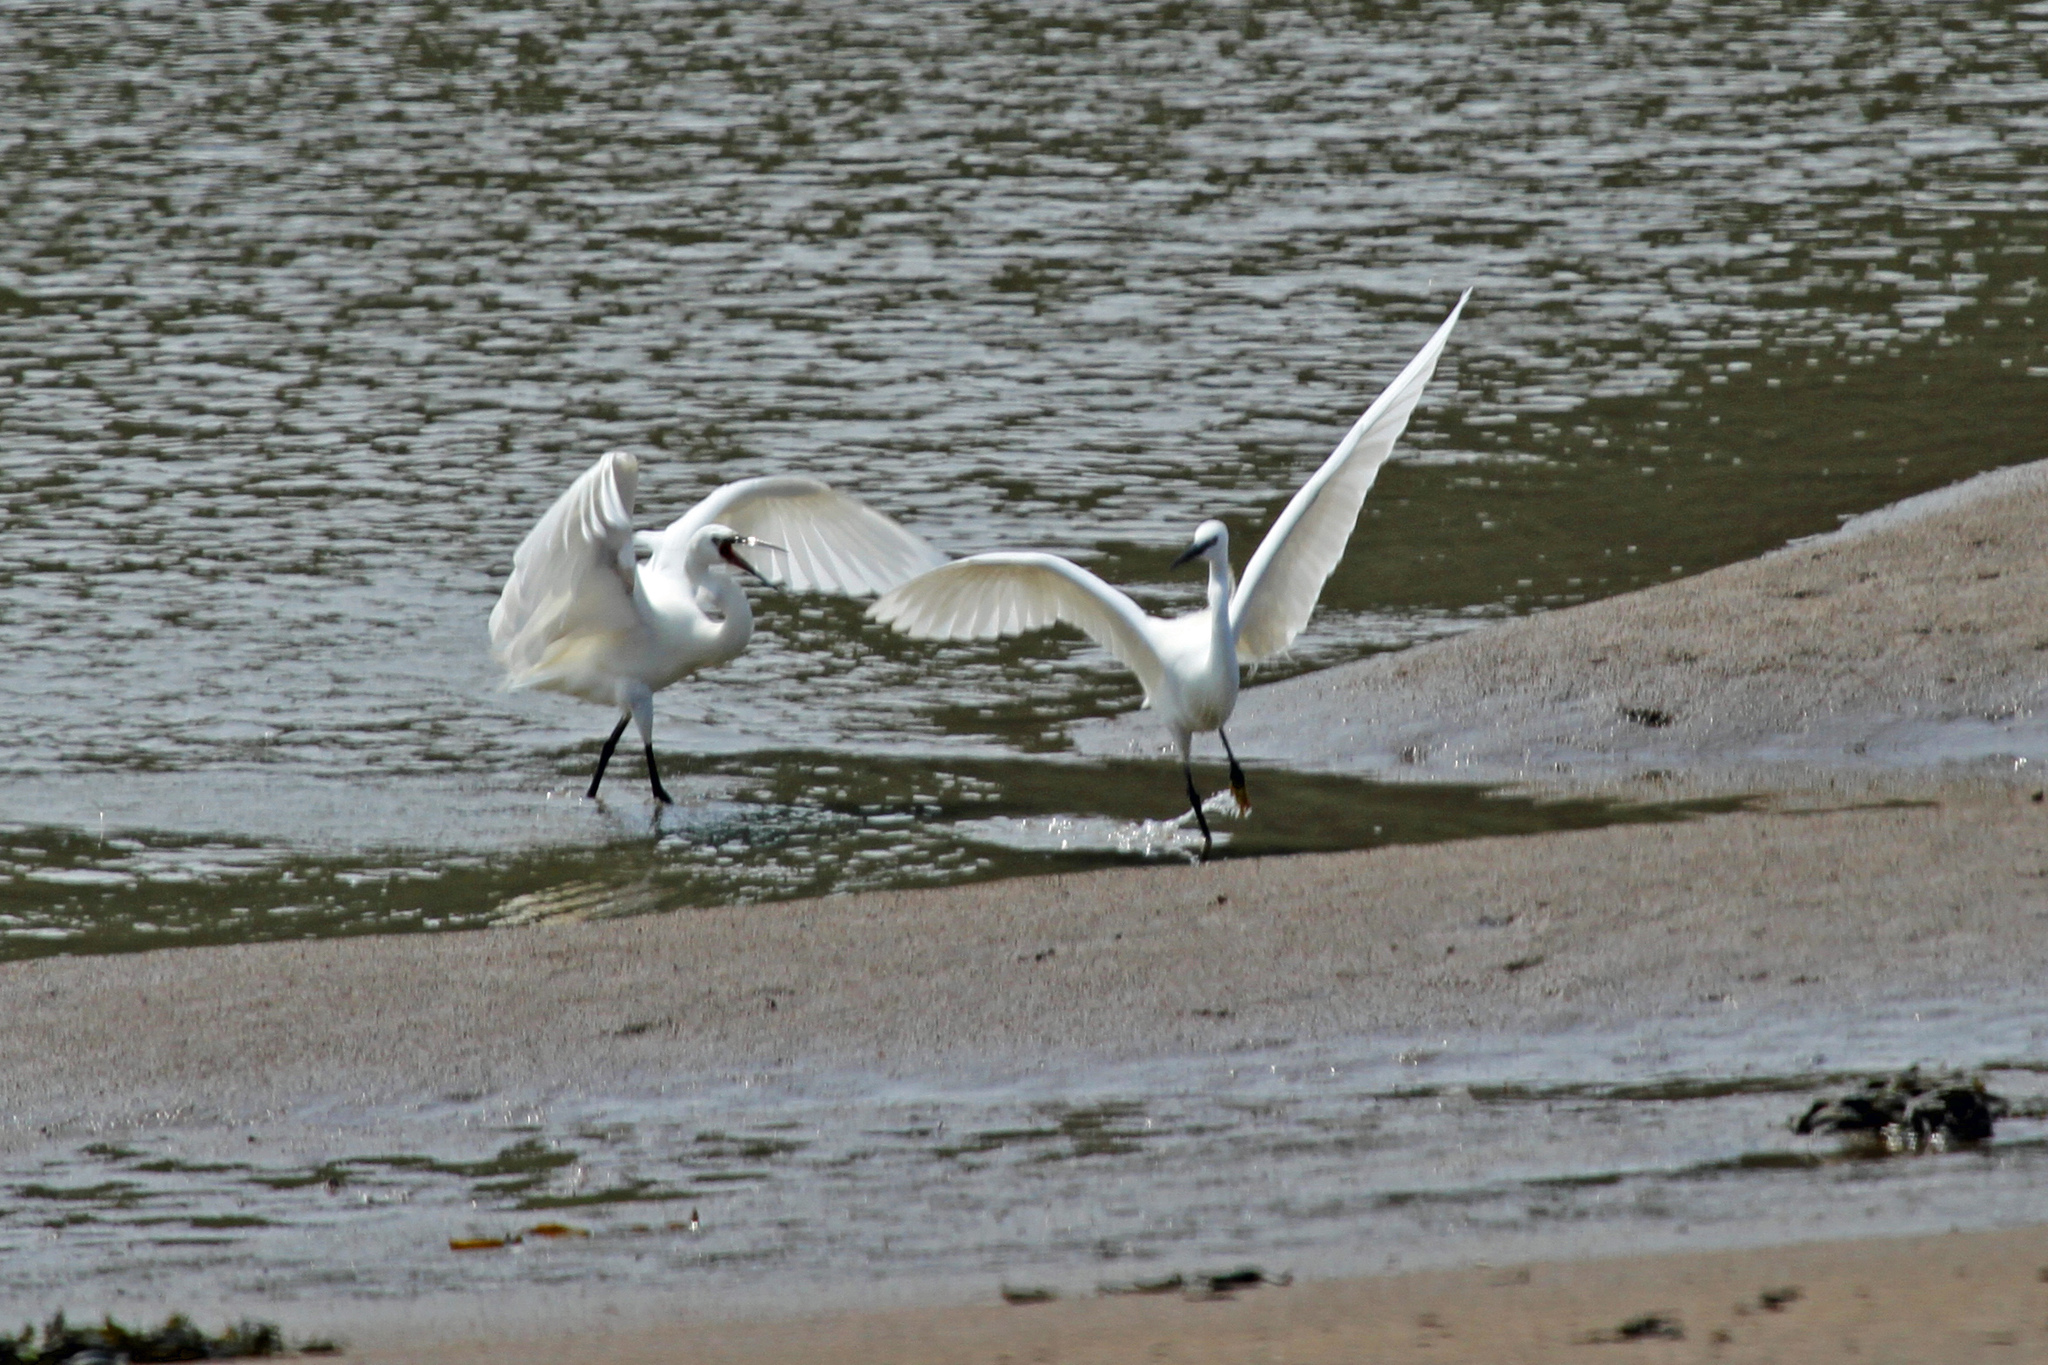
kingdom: Animalia
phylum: Chordata
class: Aves
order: Pelecaniformes
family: Ardeidae
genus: Egretta
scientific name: Egretta garzetta
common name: Little egret
